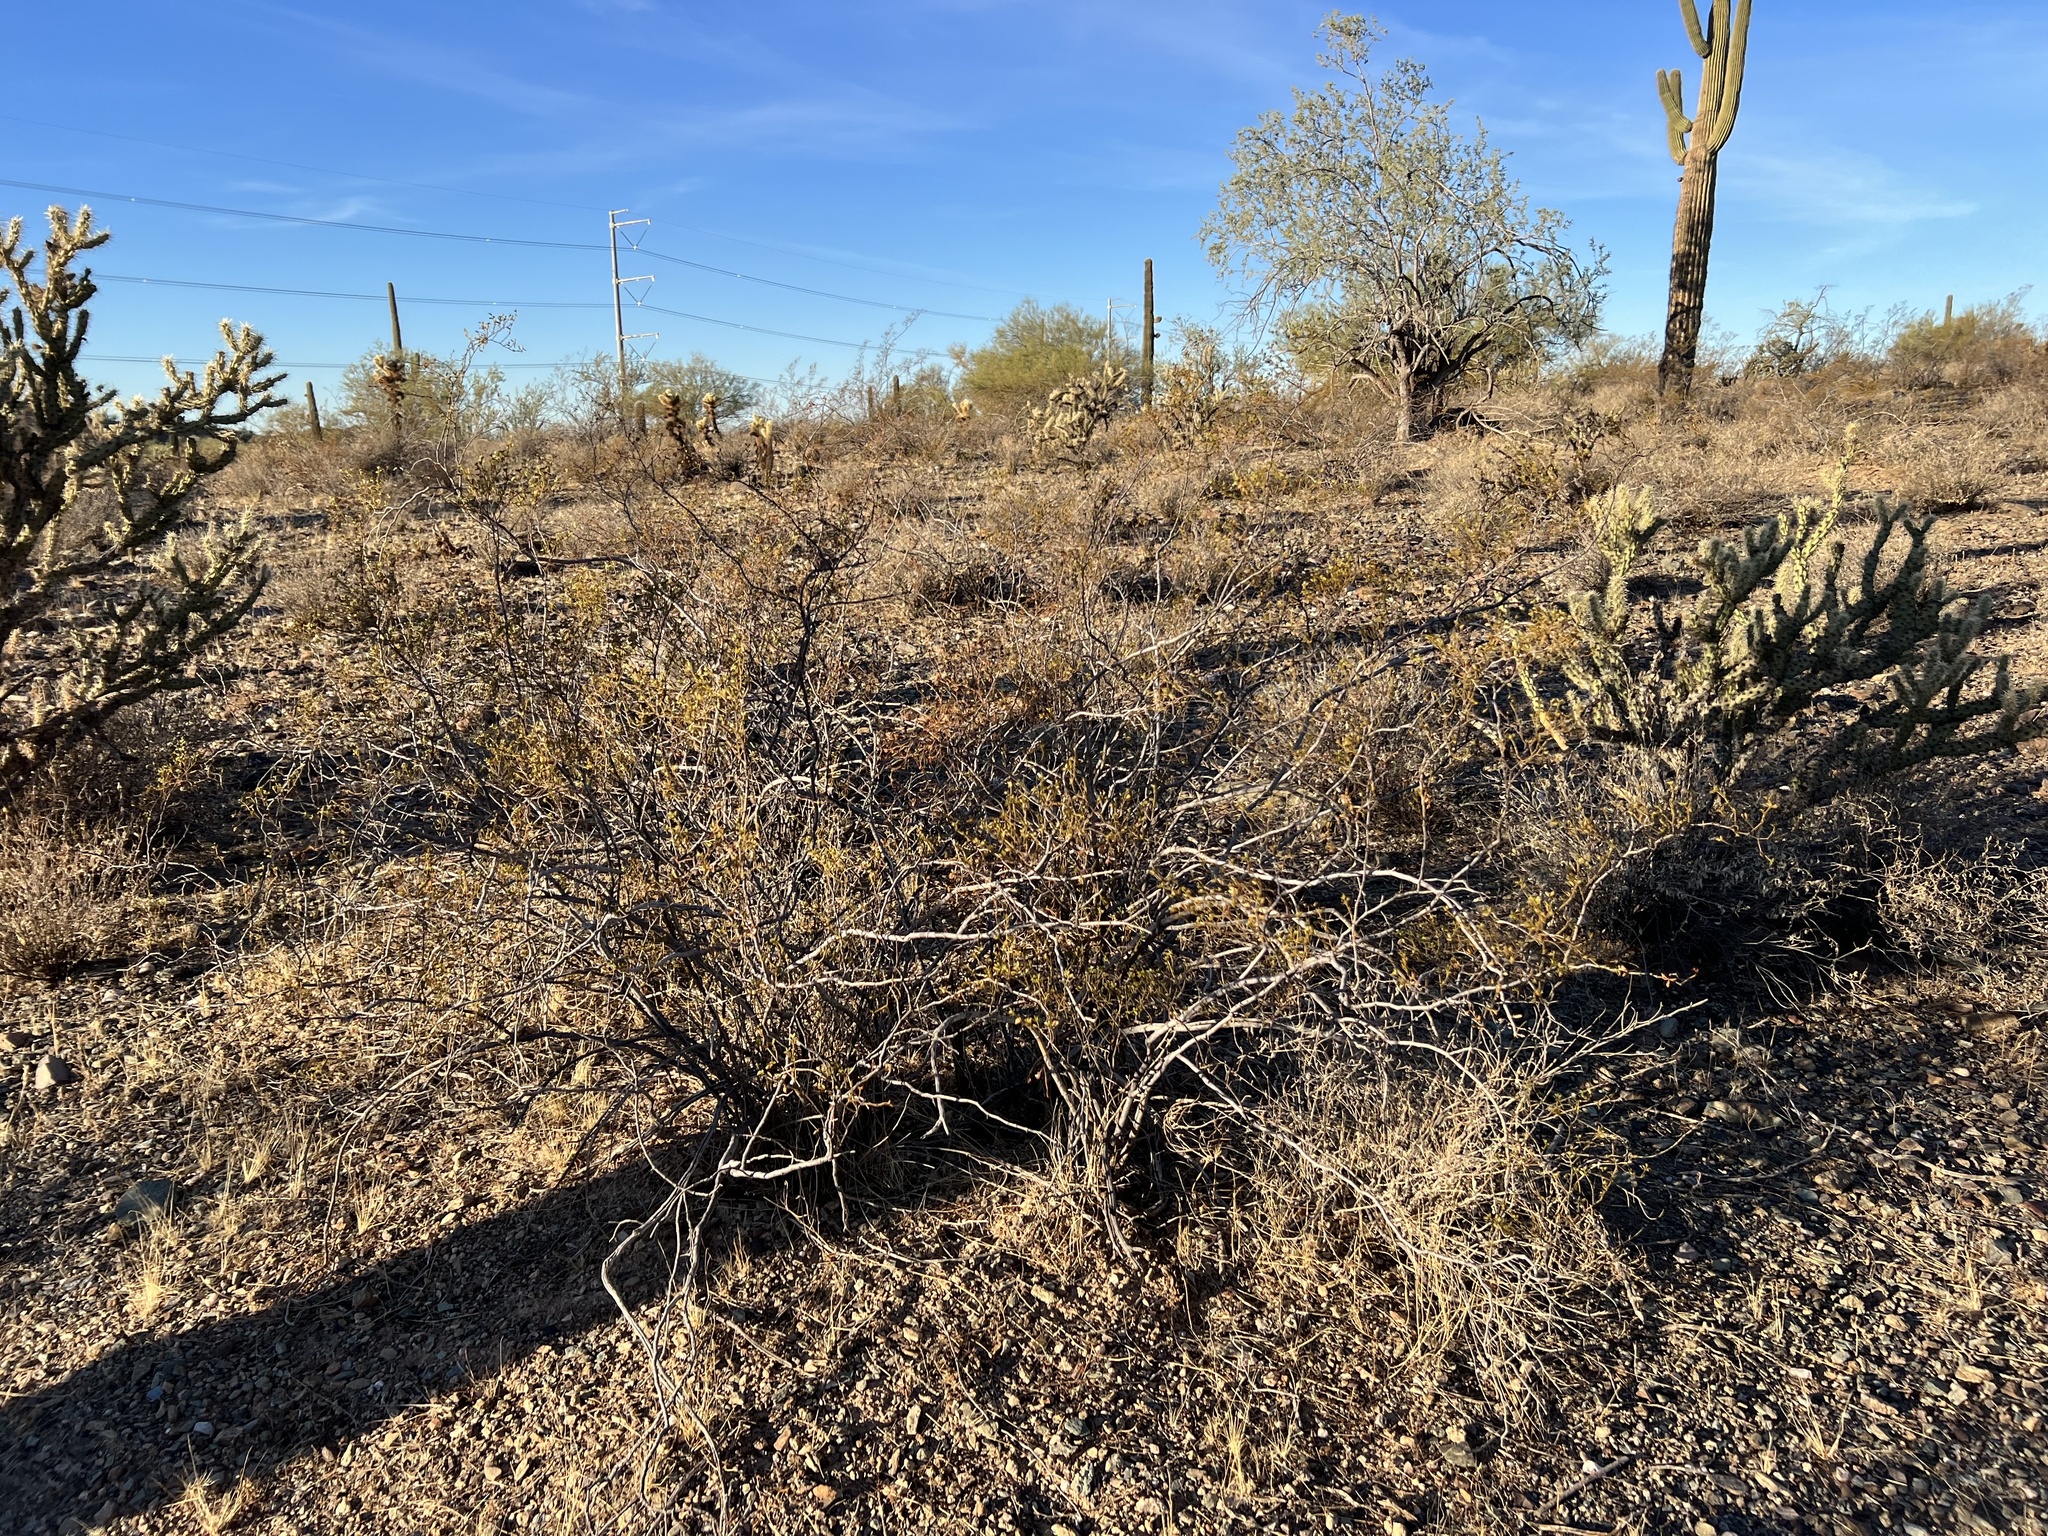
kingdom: Plantae
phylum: Tracheophyta
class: Magnoliopsida
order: Zygophyllales
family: Zygophyllaceae
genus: Larrea
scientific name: Larrea tridentata
